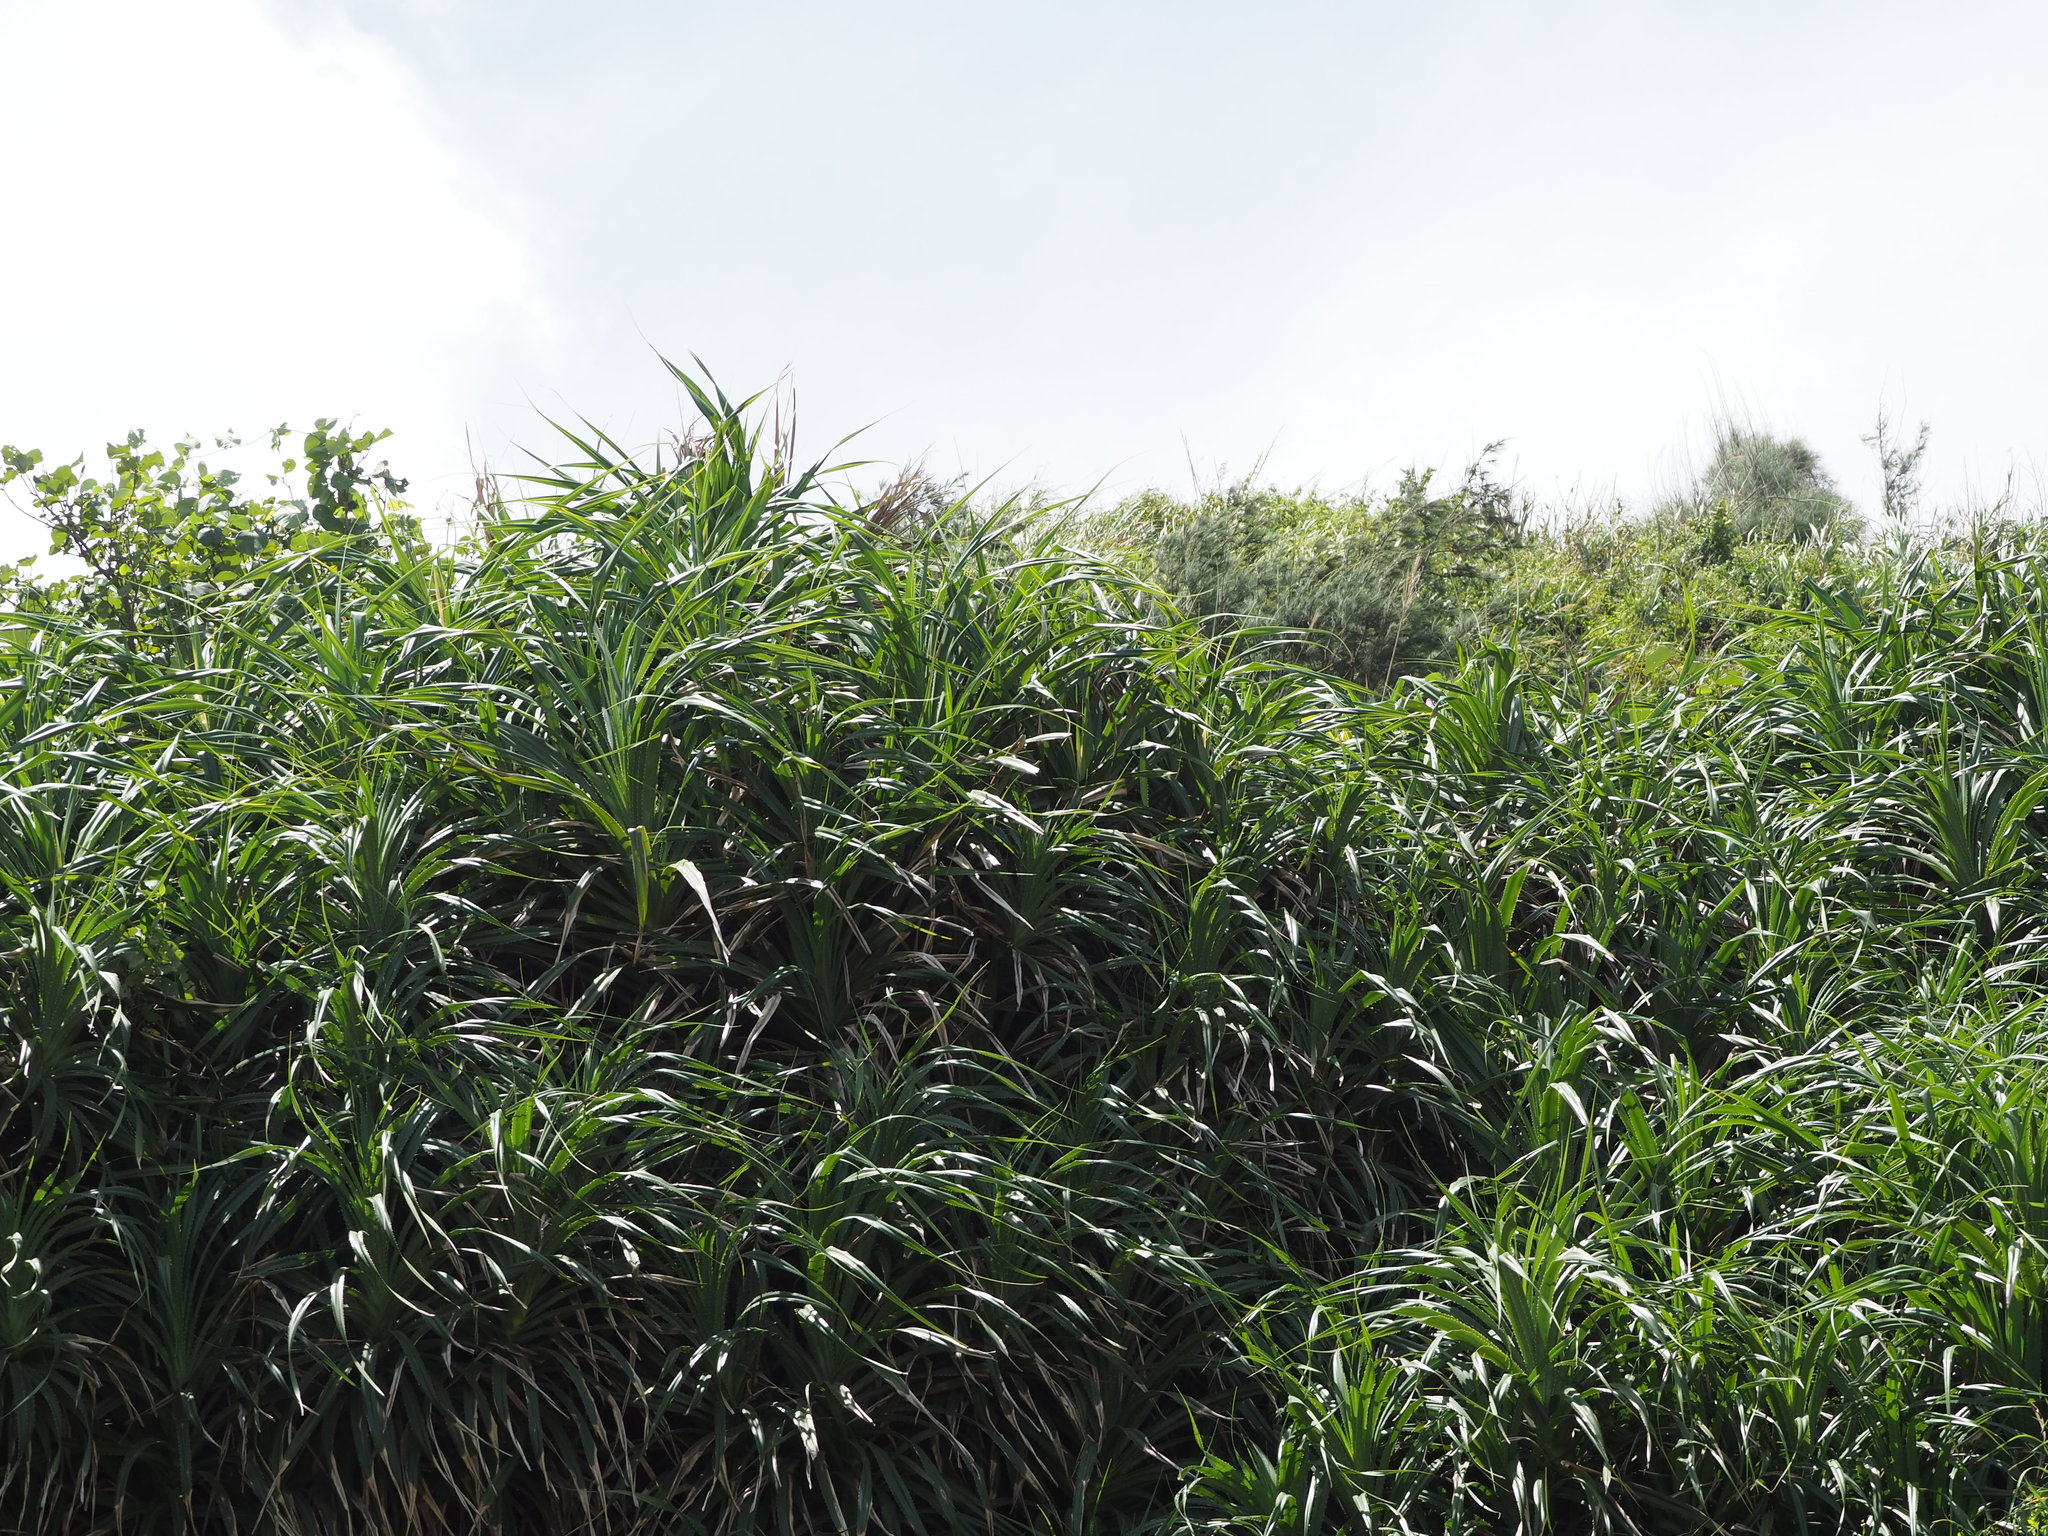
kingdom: Plantae
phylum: Tracheophyta
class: Liliopsida
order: Pandanales
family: Pandanaceae
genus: Pandanus
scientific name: Pandanus odorifer
